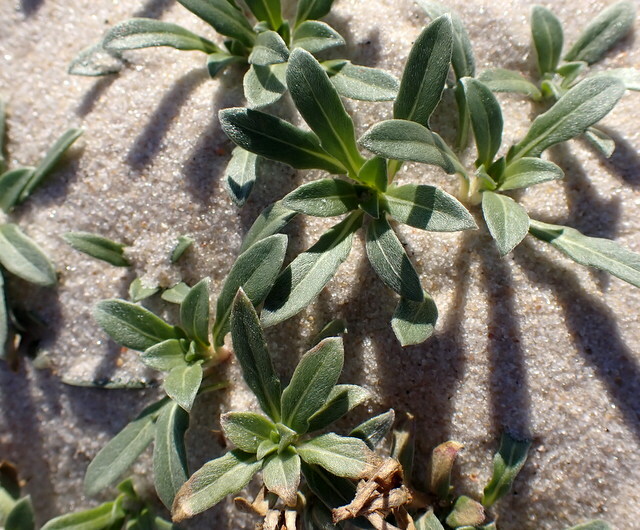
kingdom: Plantae
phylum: Tracheophyta
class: Magnoliopsida
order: Myrtales
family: Onagraceae
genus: Oenothera
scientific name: Oenothera humifusa
